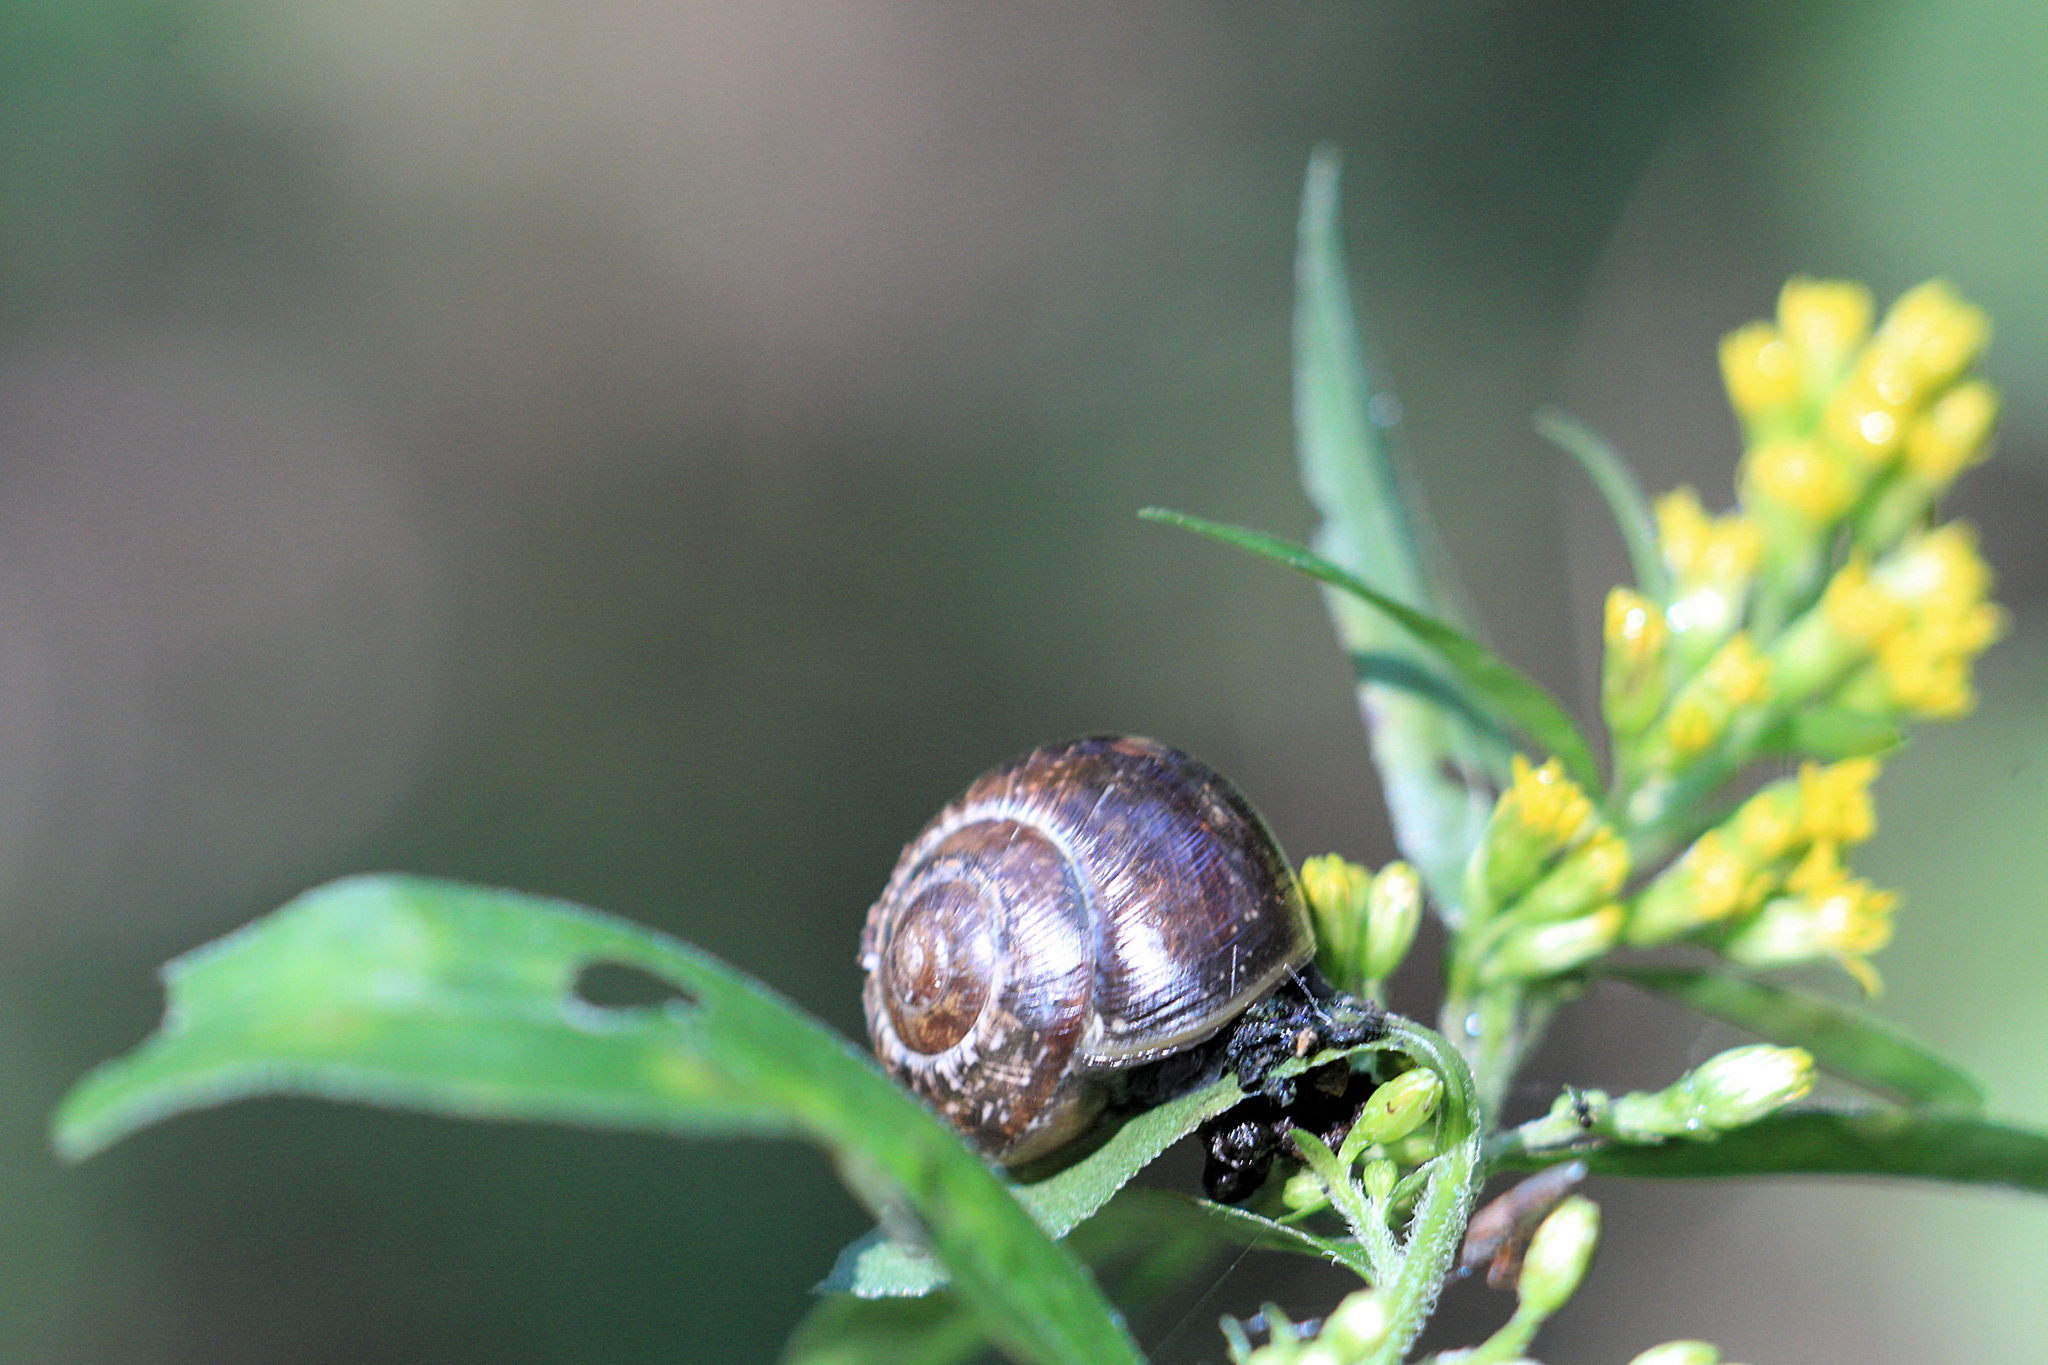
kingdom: Animalia
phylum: Mollusca
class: Gastropoda
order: Stylommatophora
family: Helicidae
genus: Arianta
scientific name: Arianta arbustorum
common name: Copse snail
